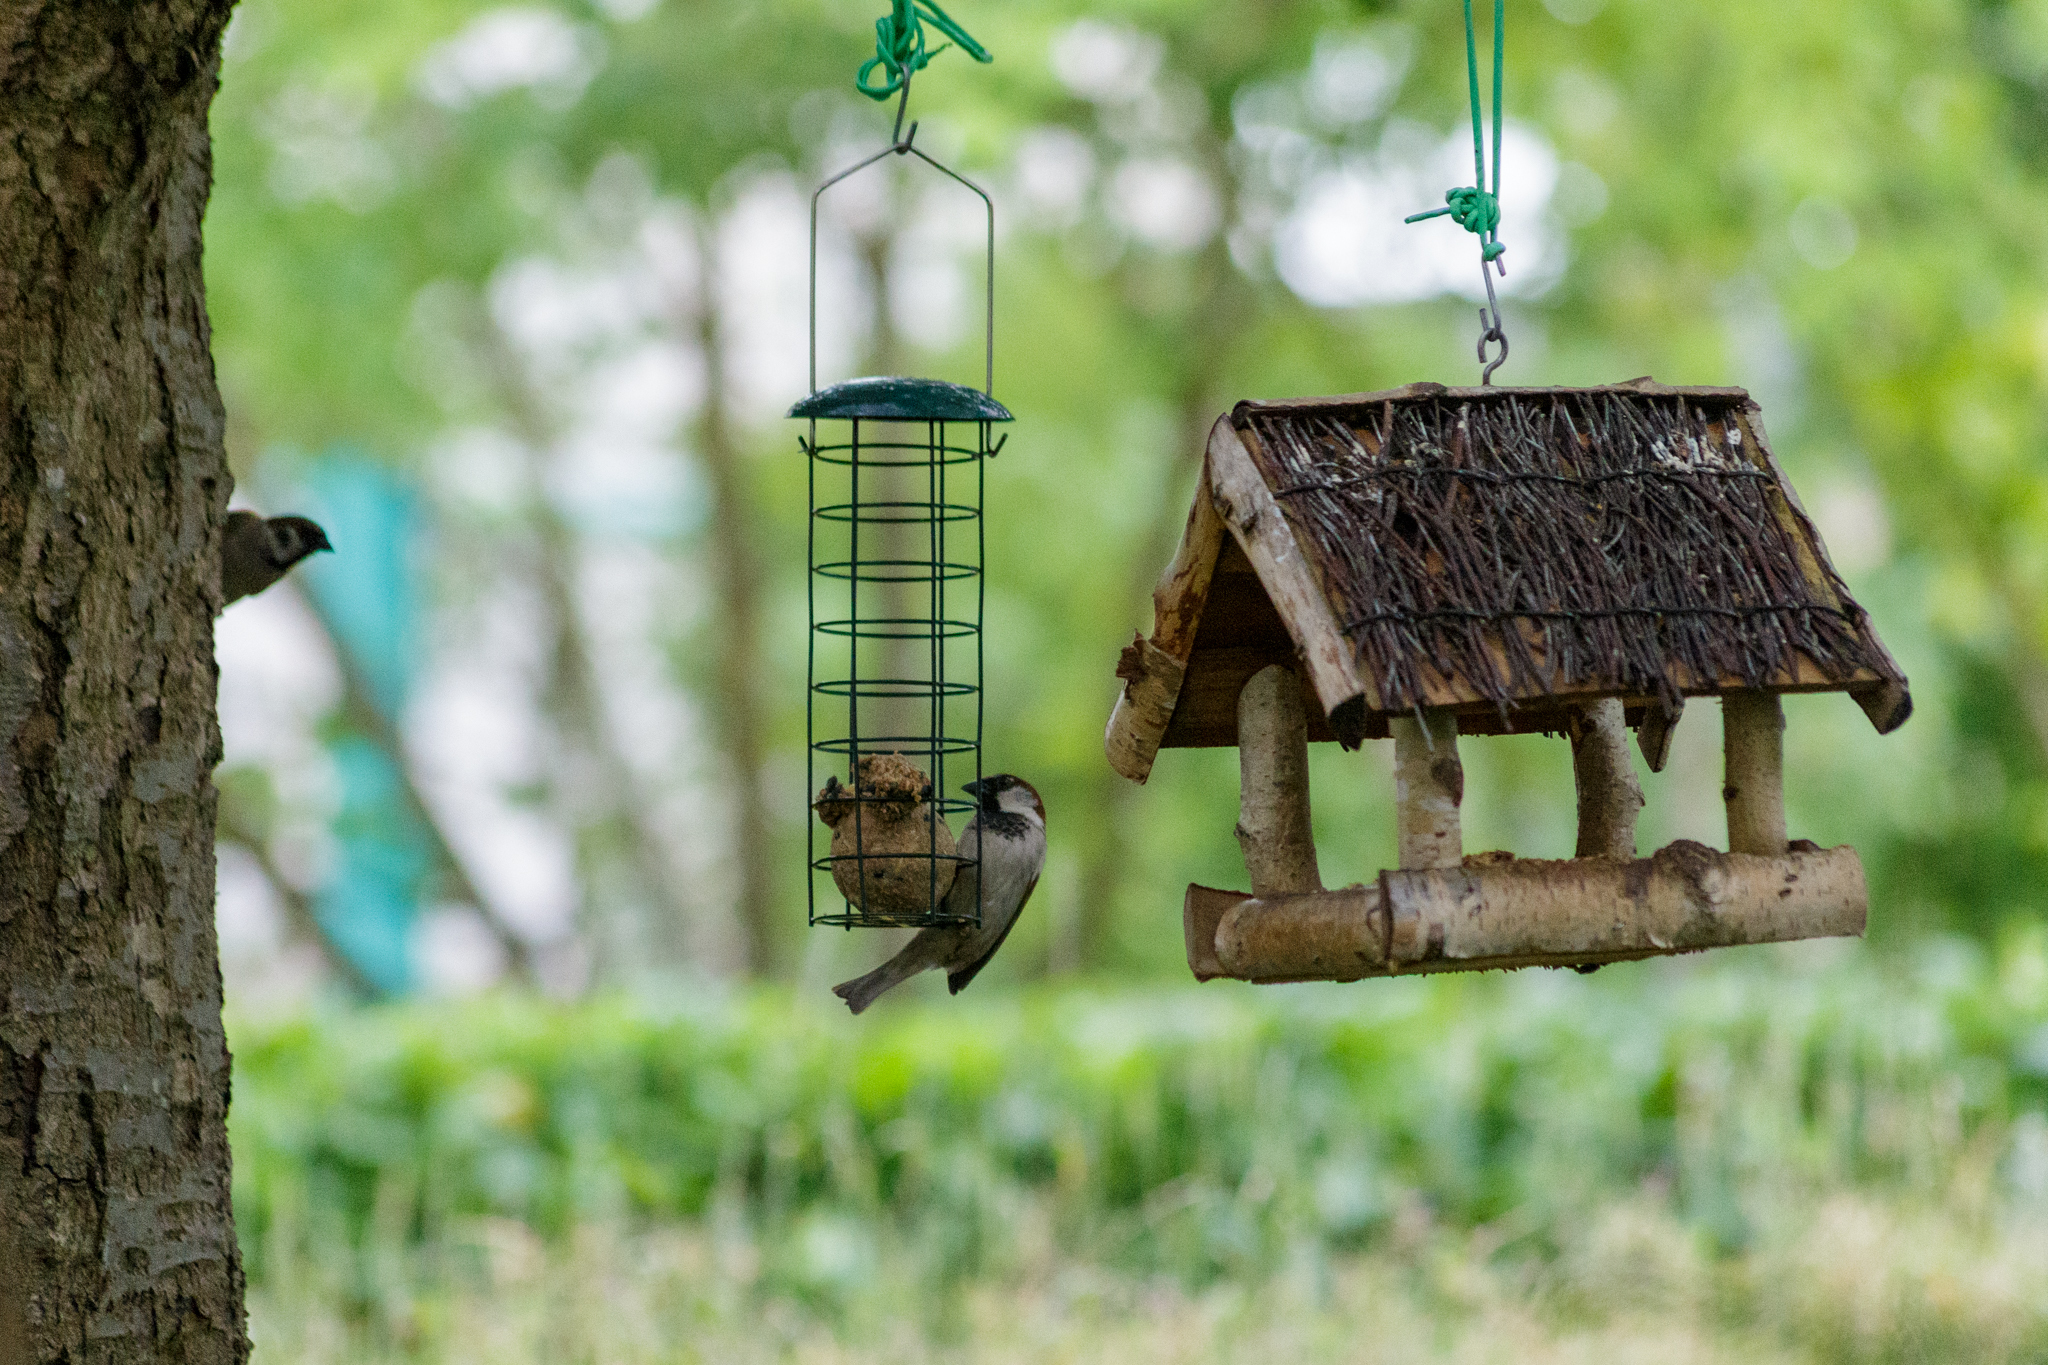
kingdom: Animalia
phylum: Chordata
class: Aves
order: Passeriformes
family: Passeridae
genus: Passer
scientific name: Passer domesticus
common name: House sparrow
